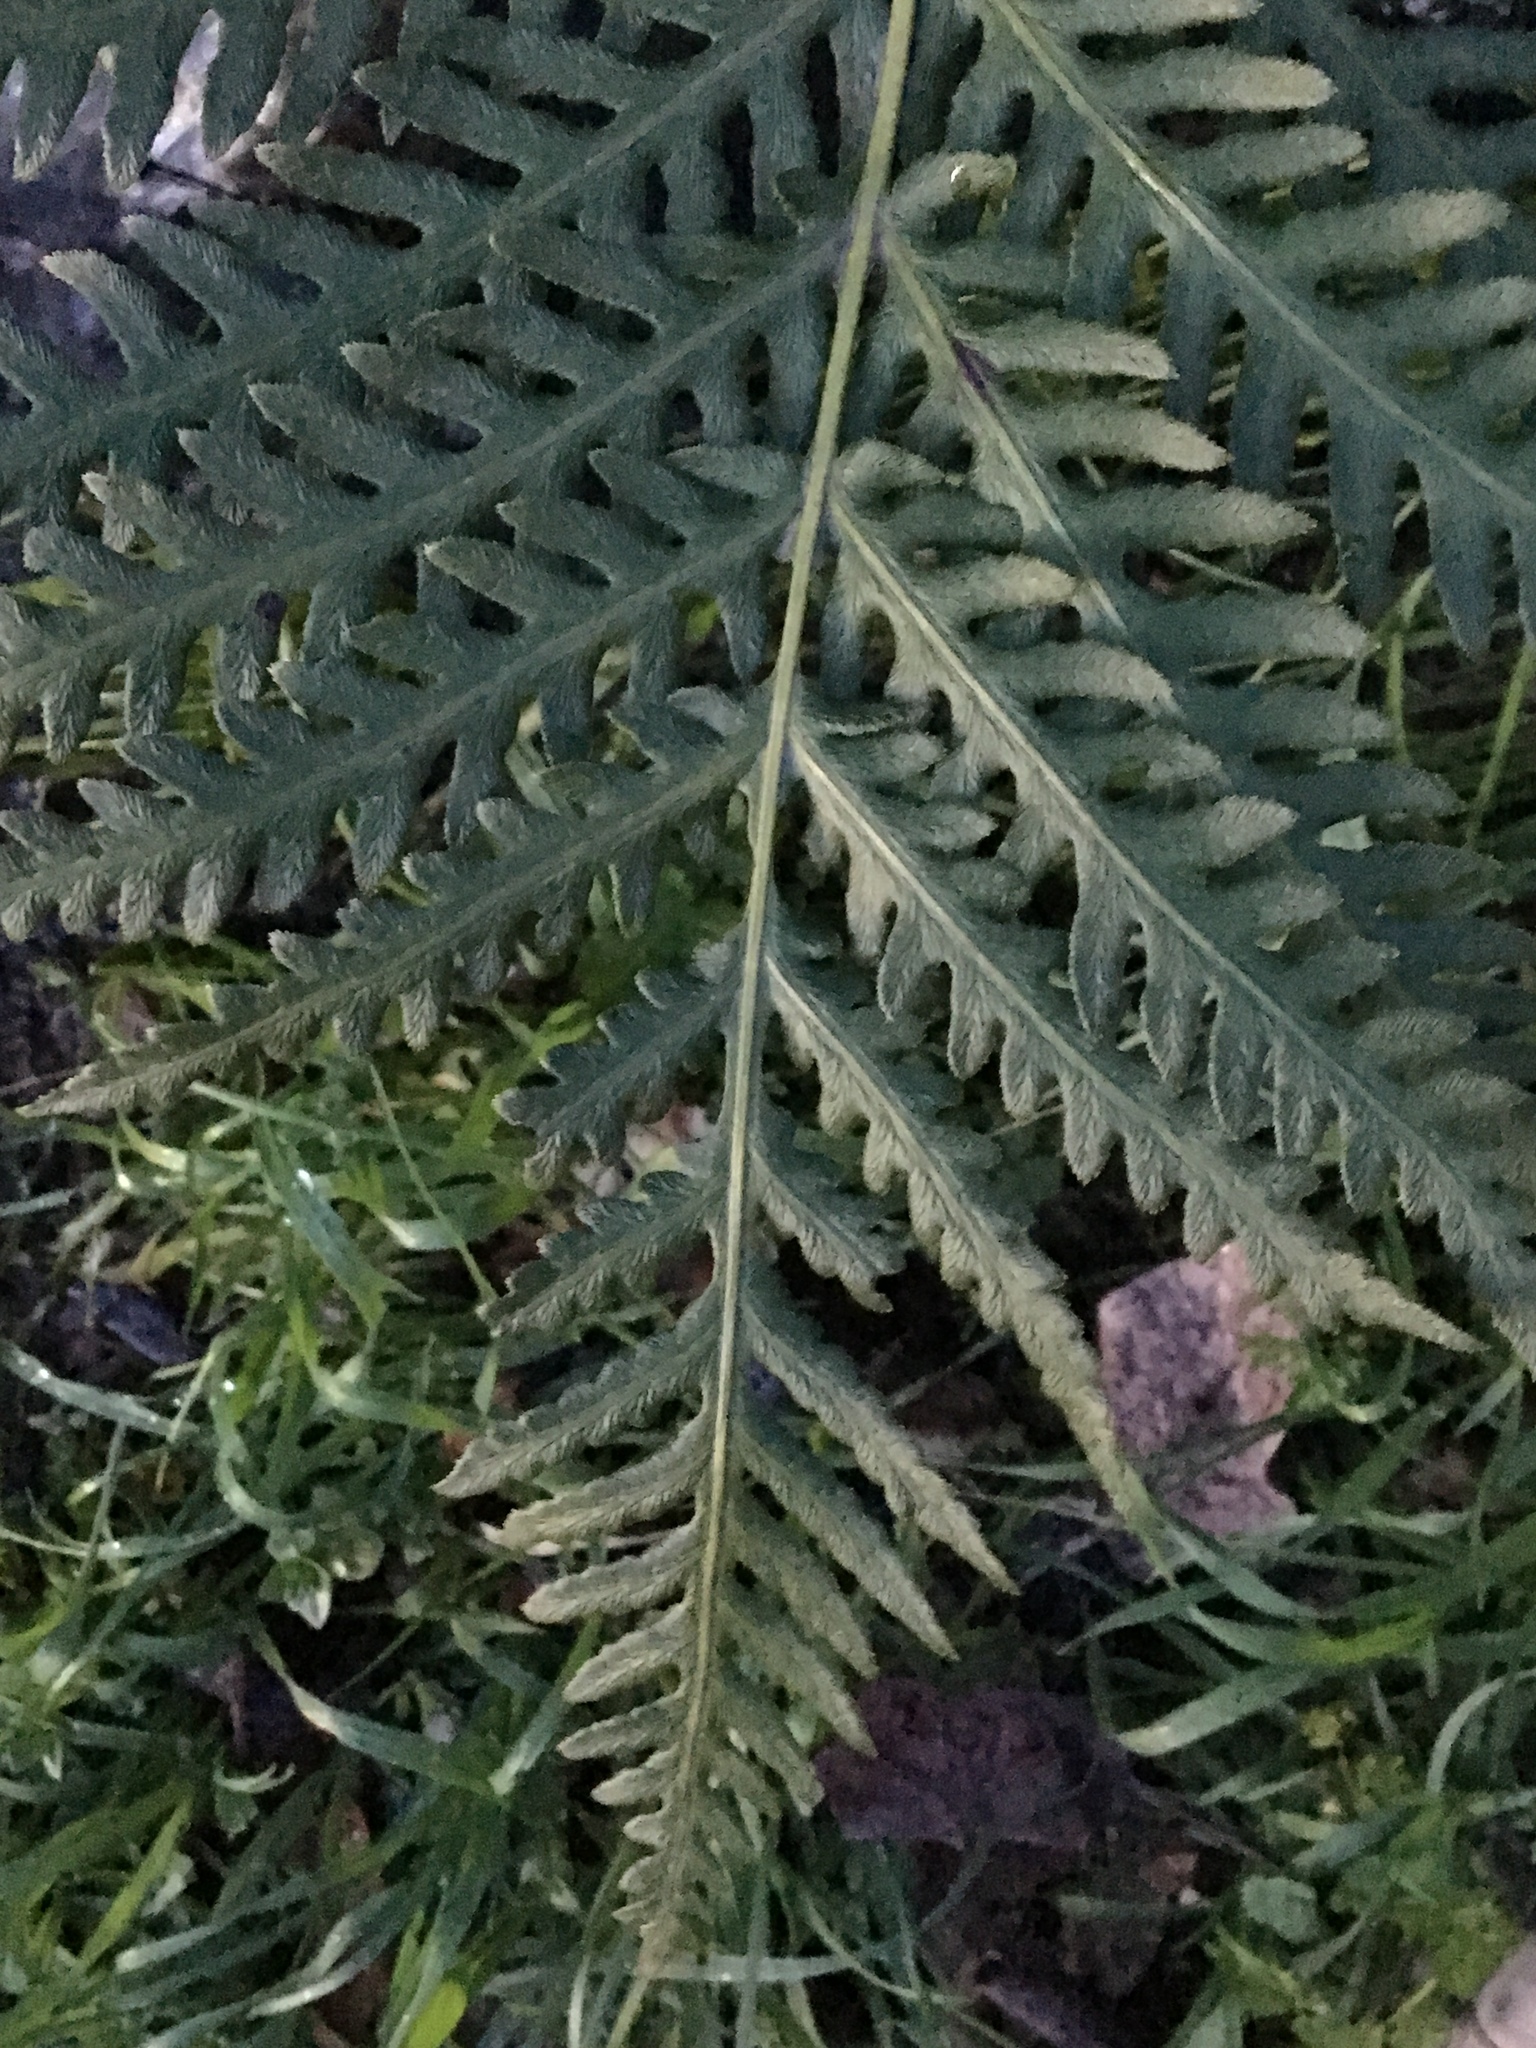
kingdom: Plantae
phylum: Tracheophyta
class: Polypodiopsida
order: Polypodiales
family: Blechnaceae
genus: Woodwardia
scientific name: Woodwardia fimbriata
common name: Giant chain fern
